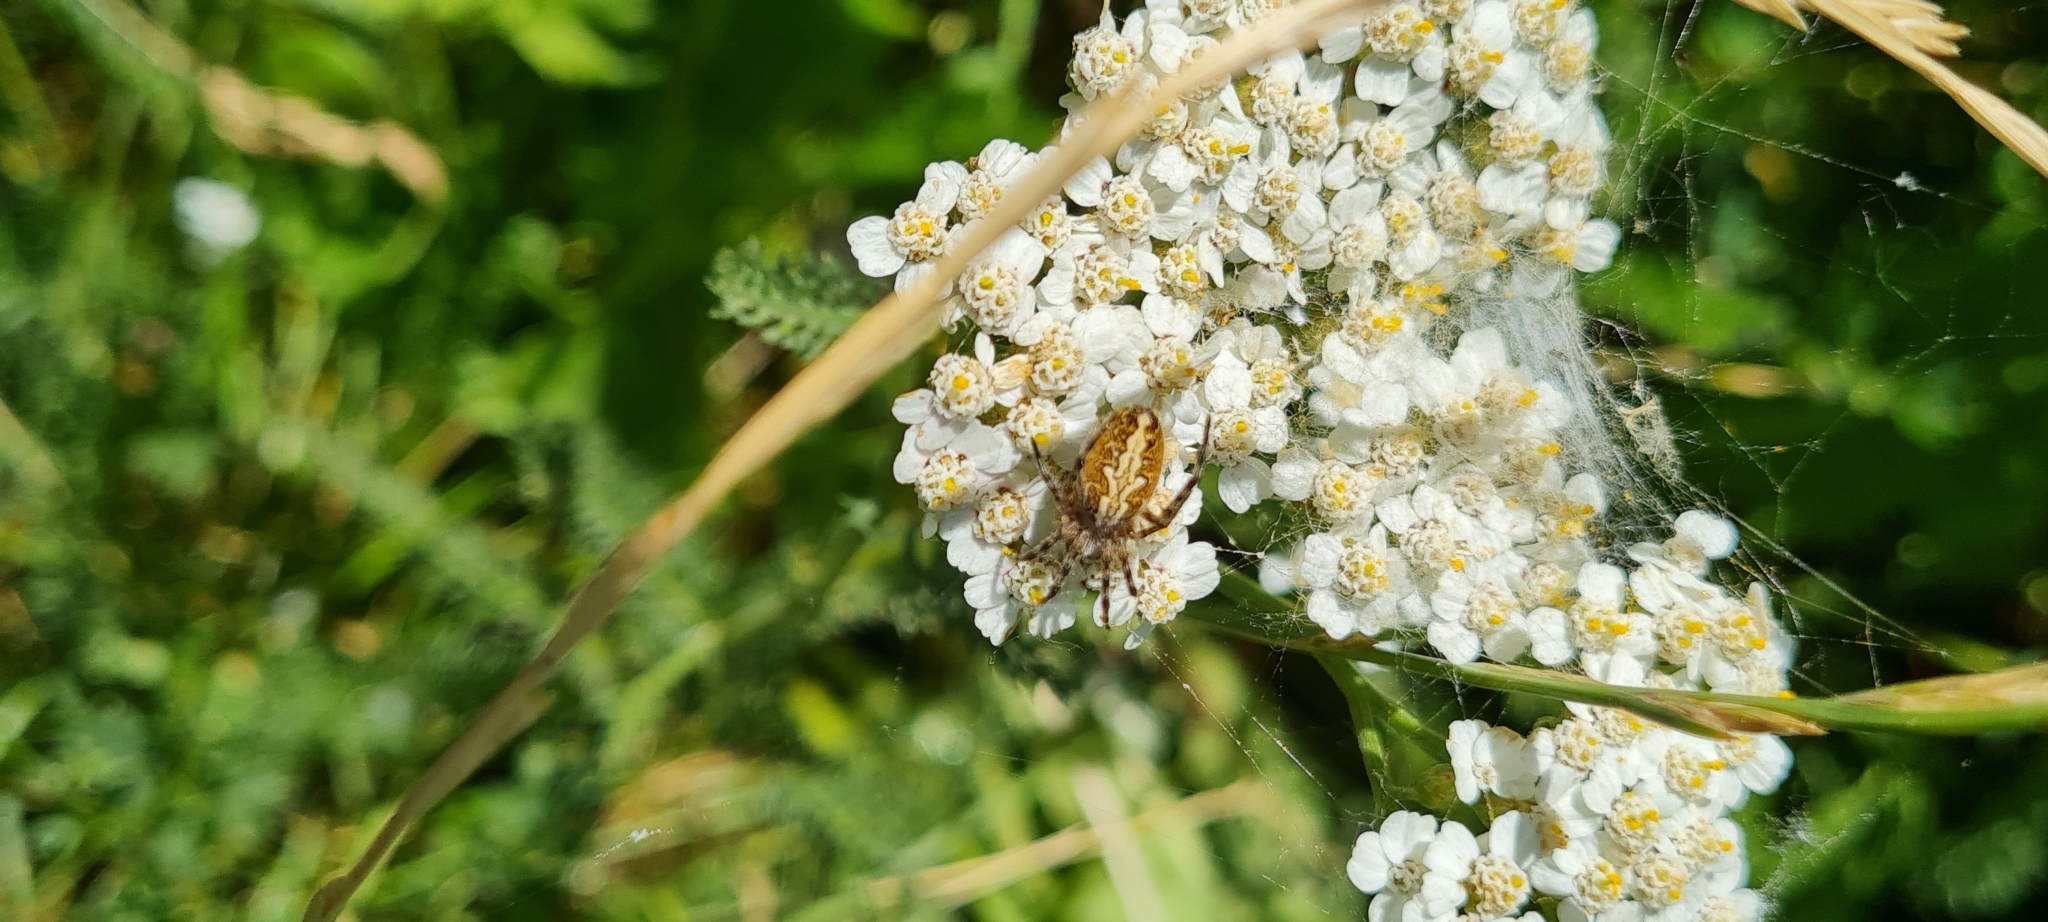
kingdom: Animalia
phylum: Arthropoda
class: Arachnida
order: Araneae
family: Araneidae
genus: Aculepeira
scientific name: Aculepeira ceropegia
